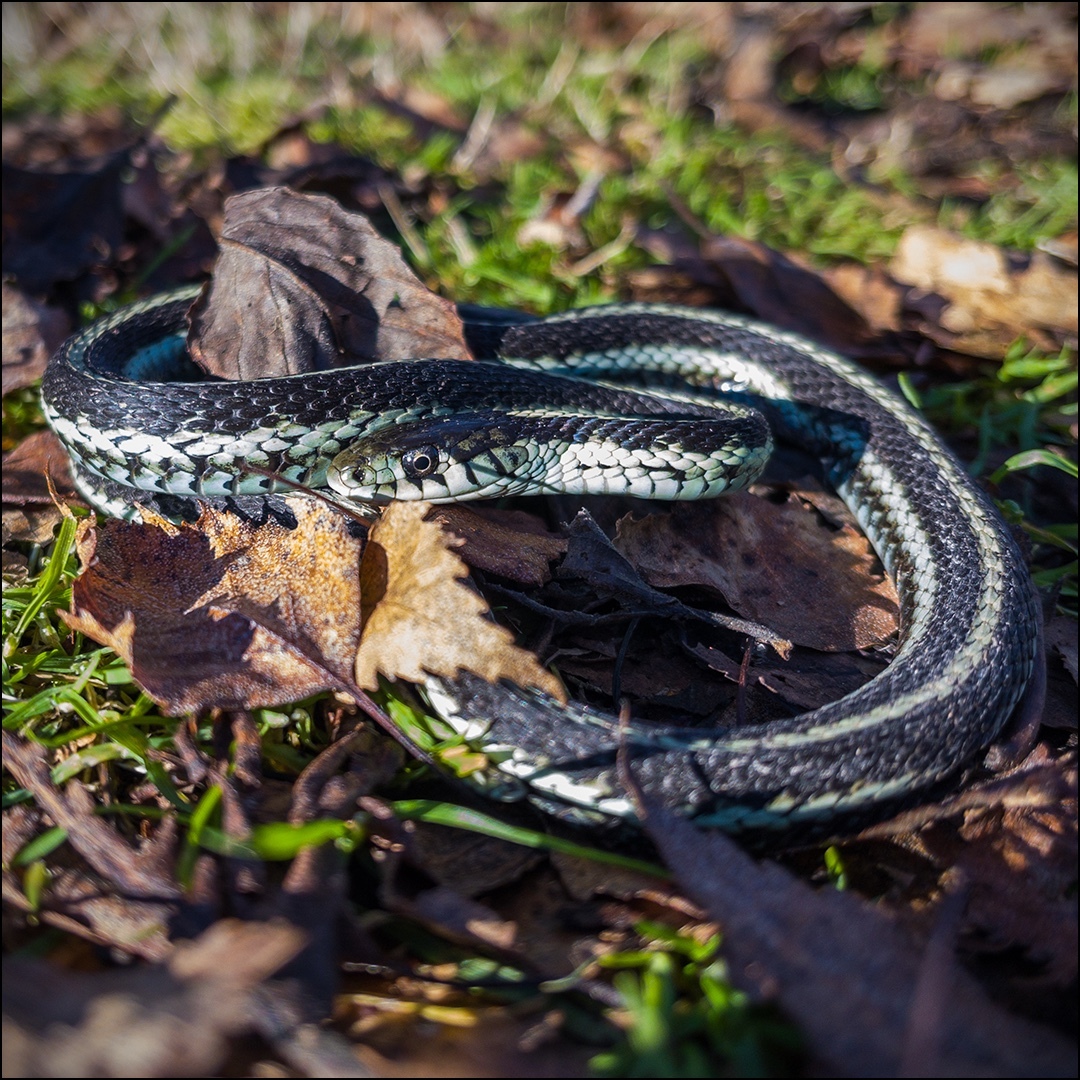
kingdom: Animalia
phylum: Chordata
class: Squamata
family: Colubridae
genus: Thamnophis
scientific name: Thamnophis sirtalis
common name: Common garter snake
